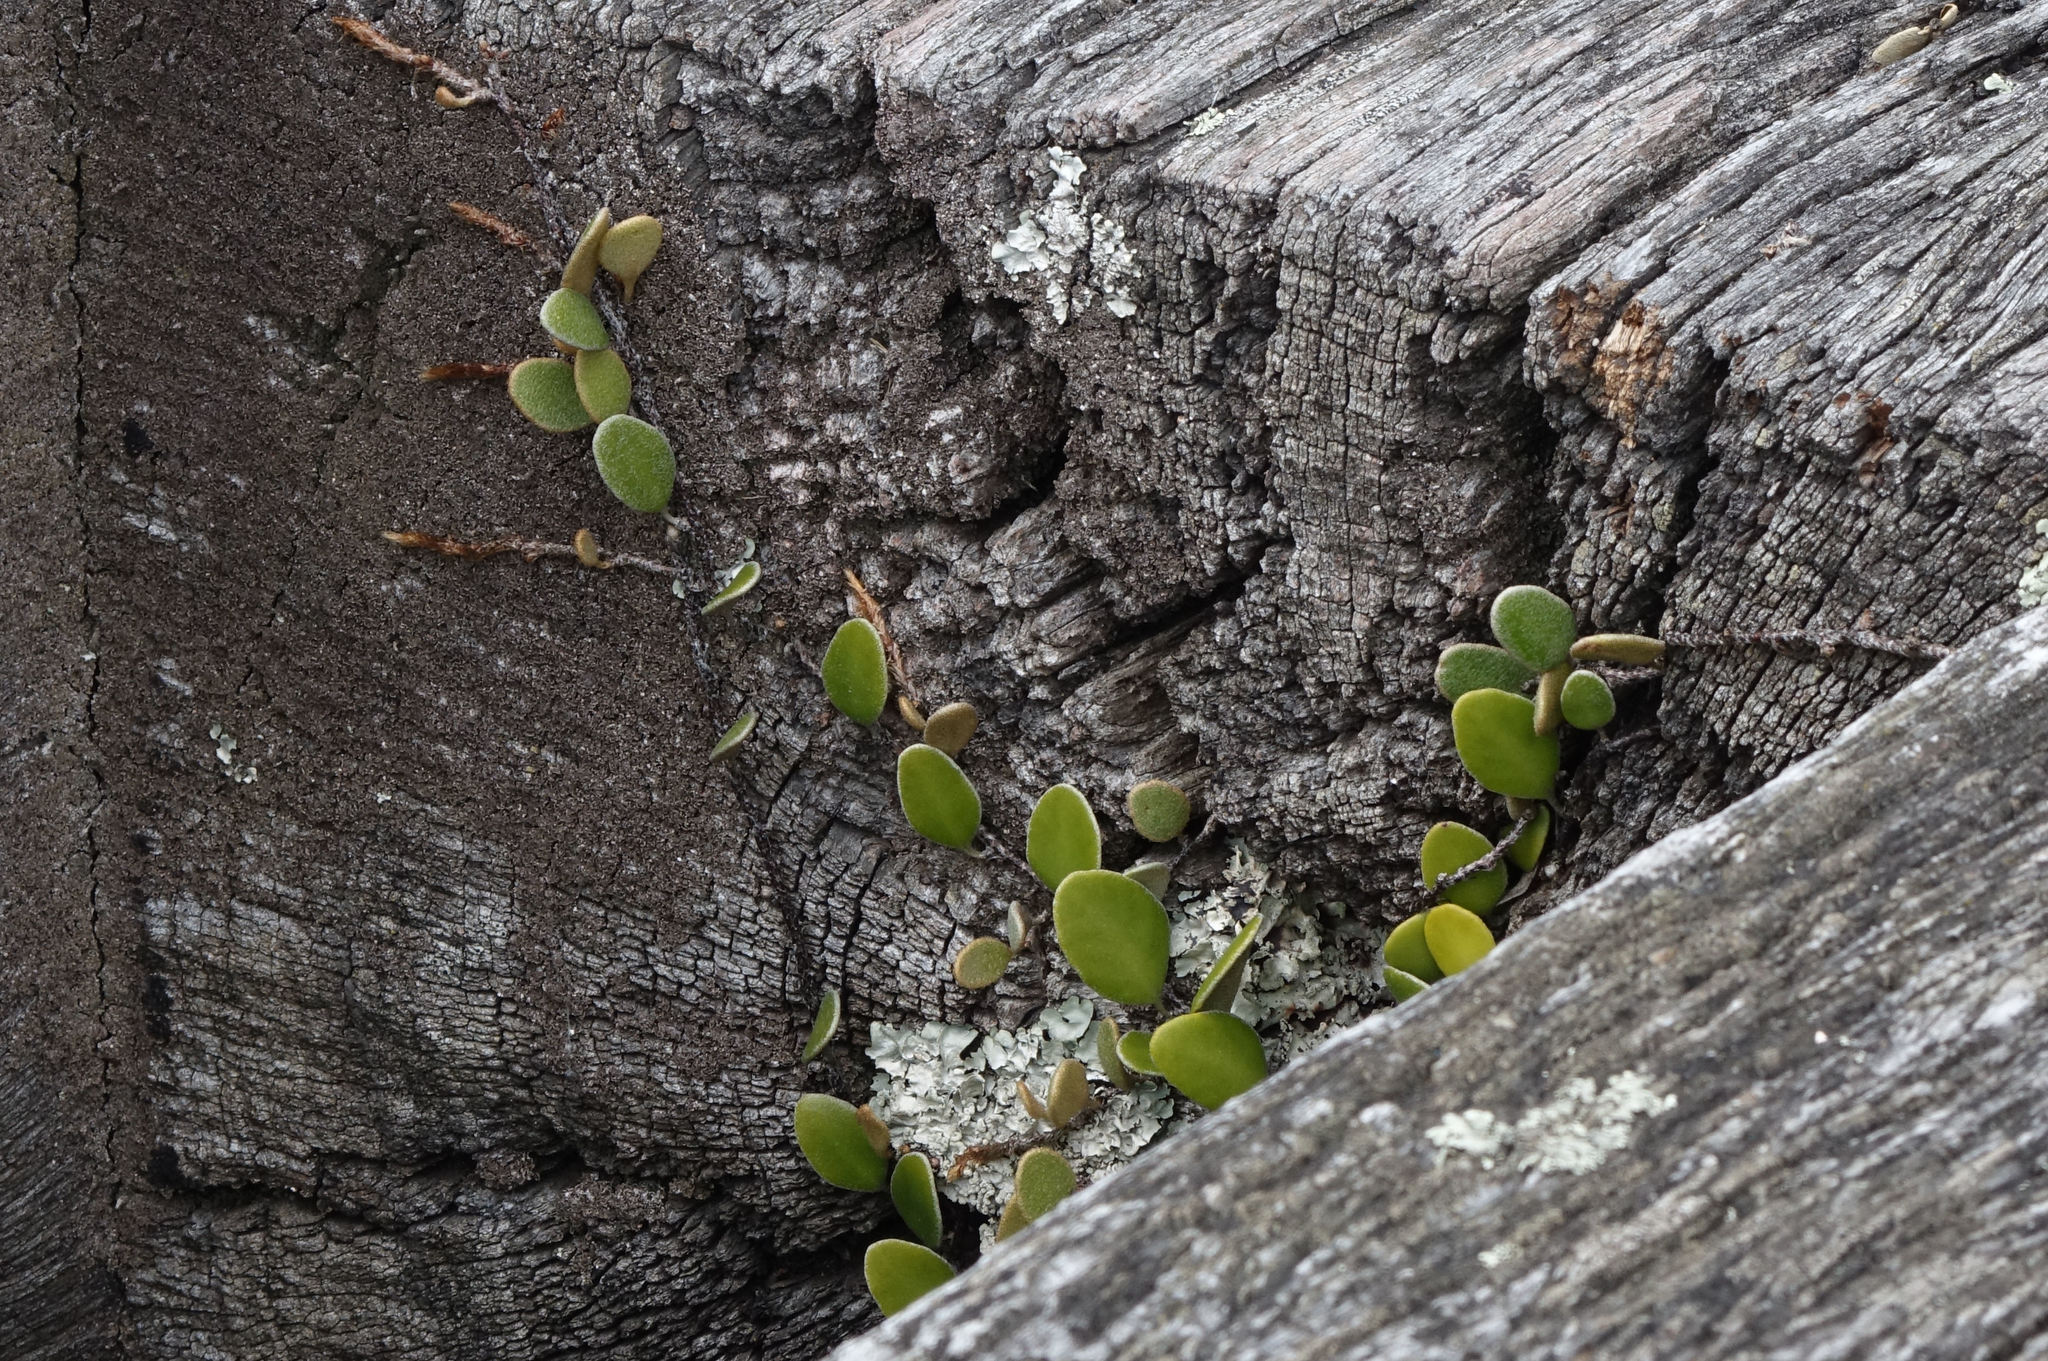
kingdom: Plantae
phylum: Tracheophyta
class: Polypodiopsida
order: Polypodiales
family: Polypodiaceae
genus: Pyrrosia
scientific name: Pyrrosia eleagnifolia
